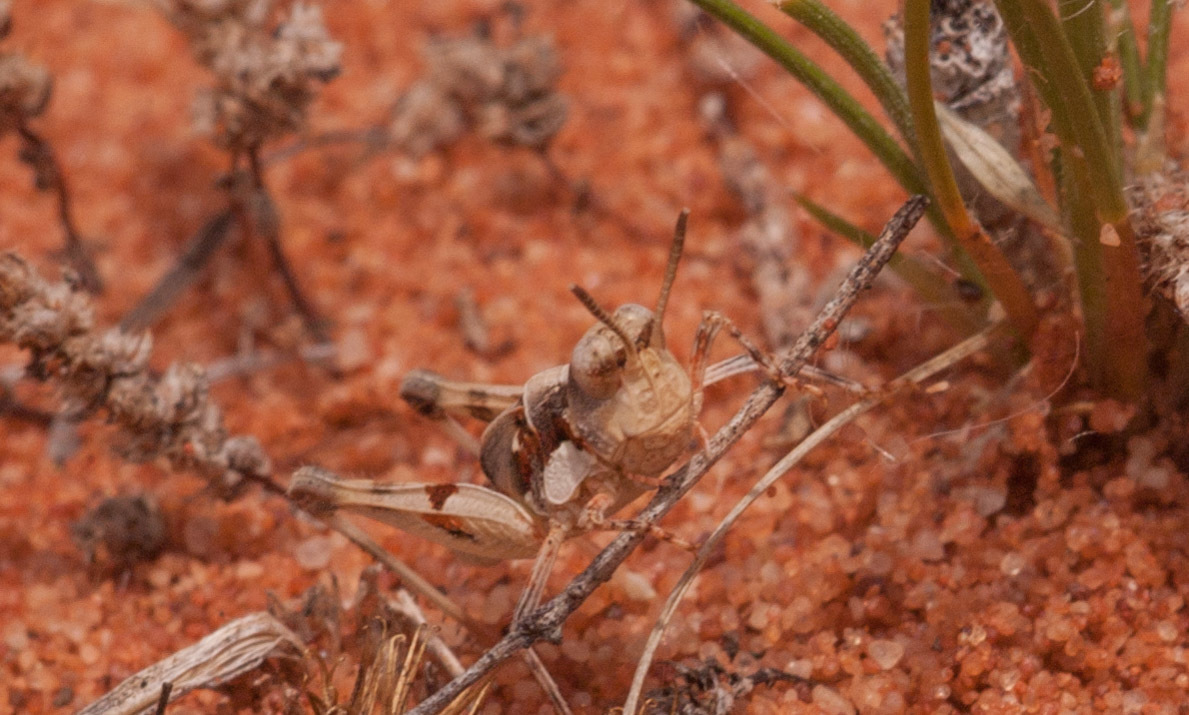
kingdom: Animalia
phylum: Arthropoda
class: Insecta
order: Orthoptera
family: Acrididae
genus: Pycnostictus
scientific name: Pycnostictus seriatus
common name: Common bandwing
